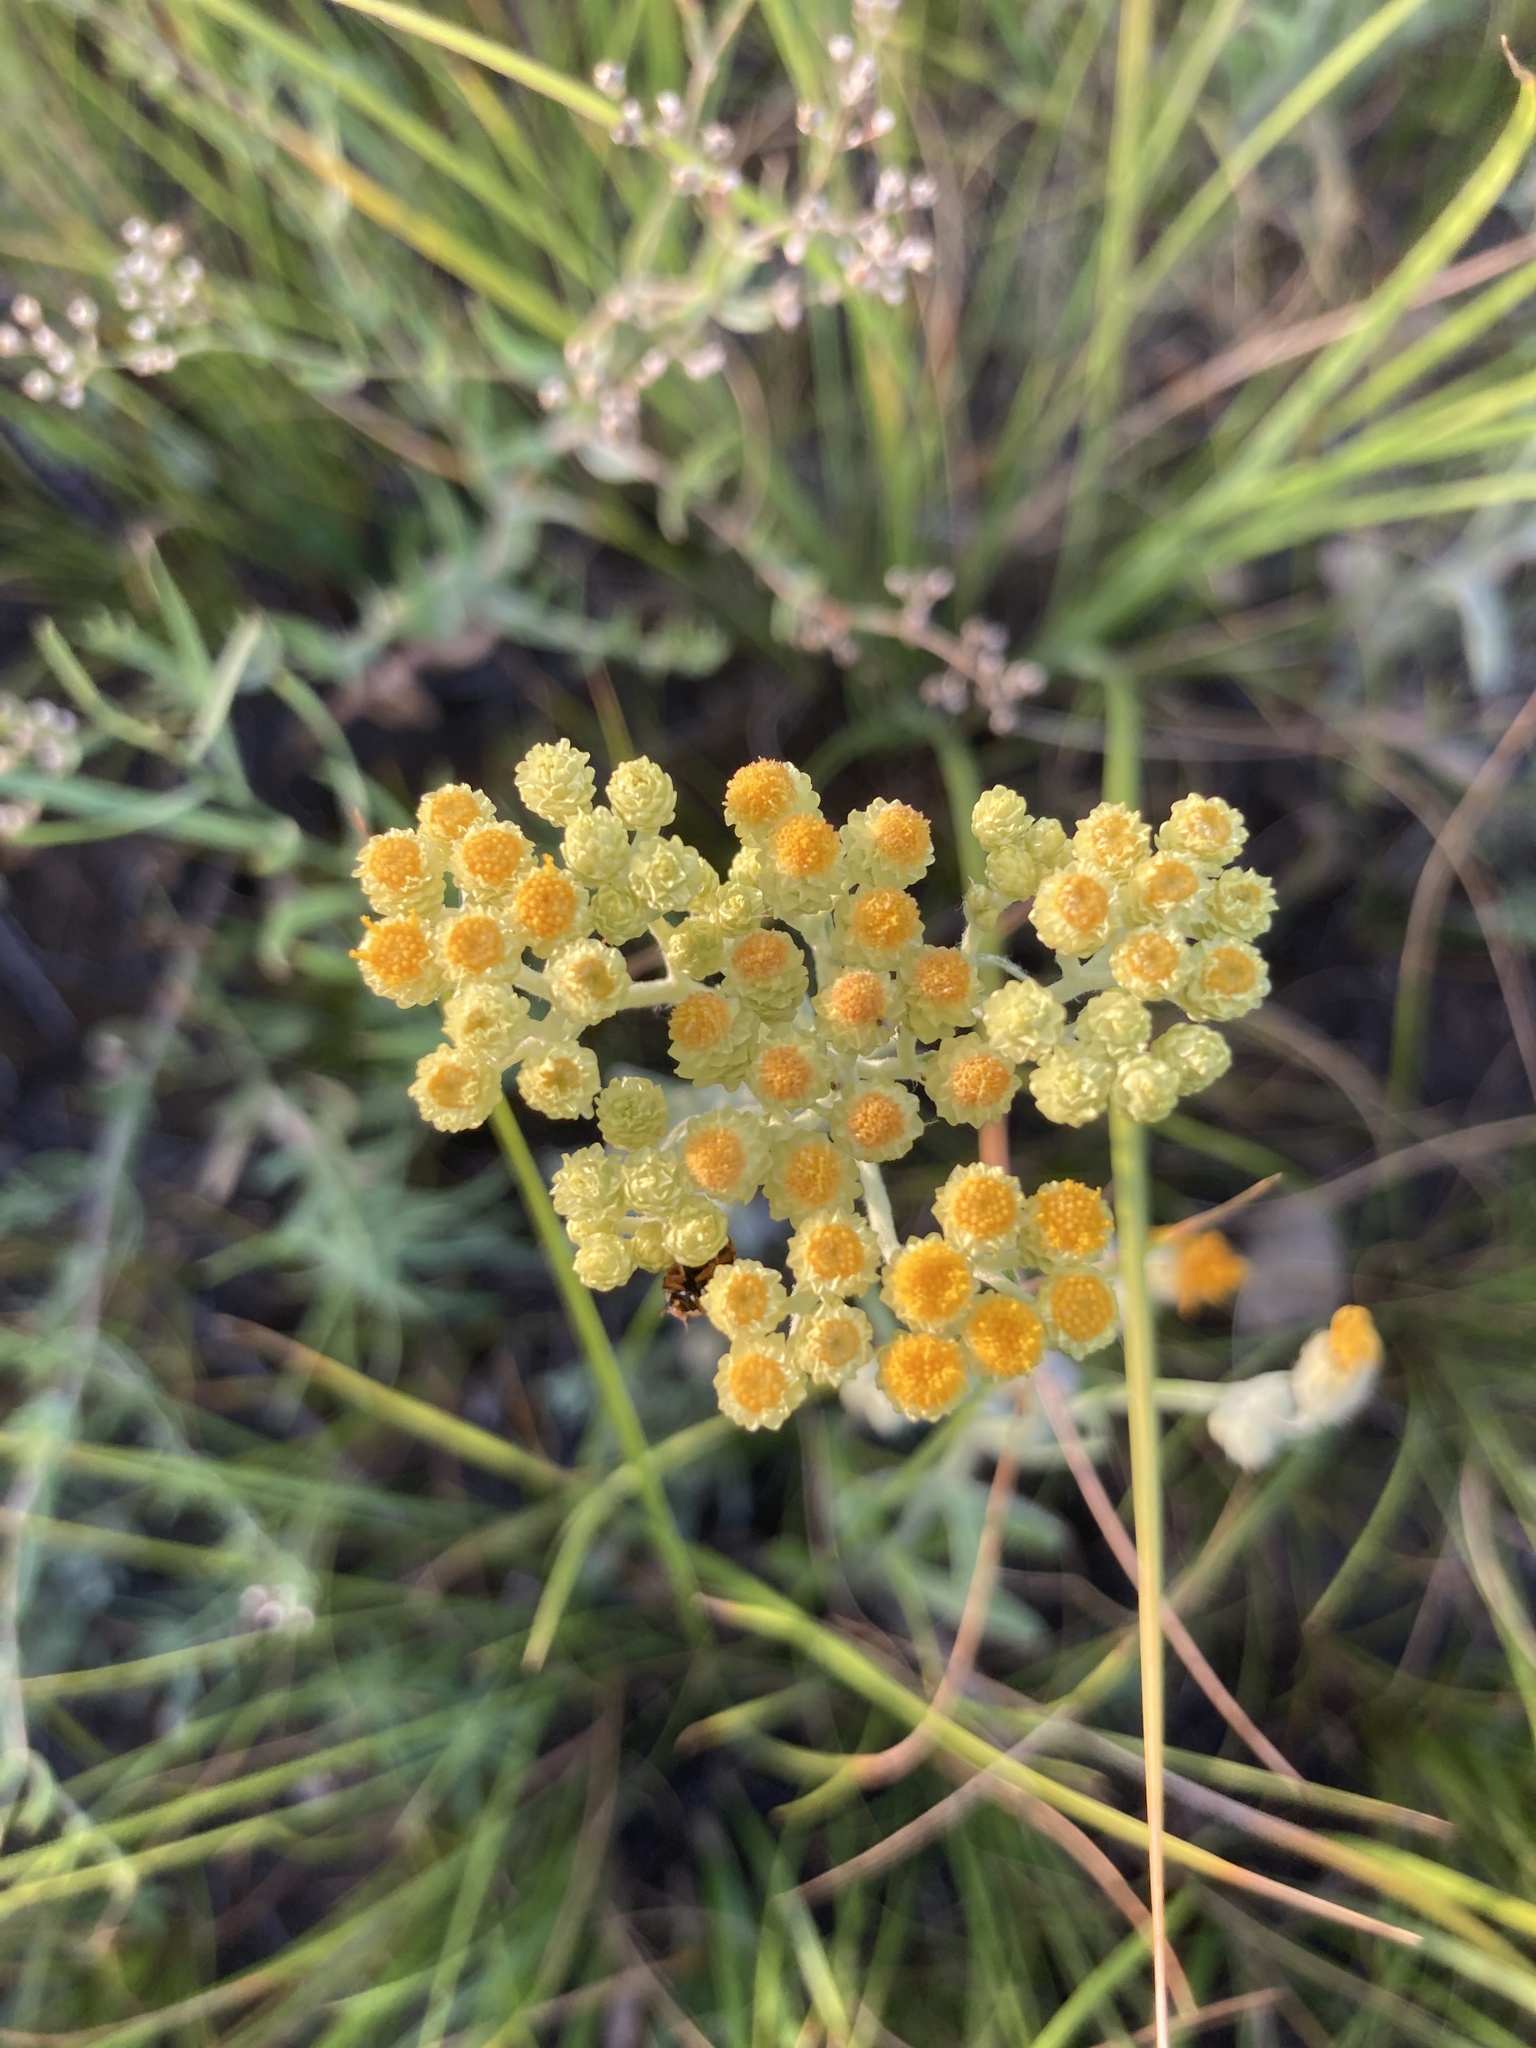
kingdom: Plantae
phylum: Tracheophyta
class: Magnoliopsida
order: Asterales
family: Asteraceae
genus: Helichrysum
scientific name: Helichrysum arenarium
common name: Strawflower
